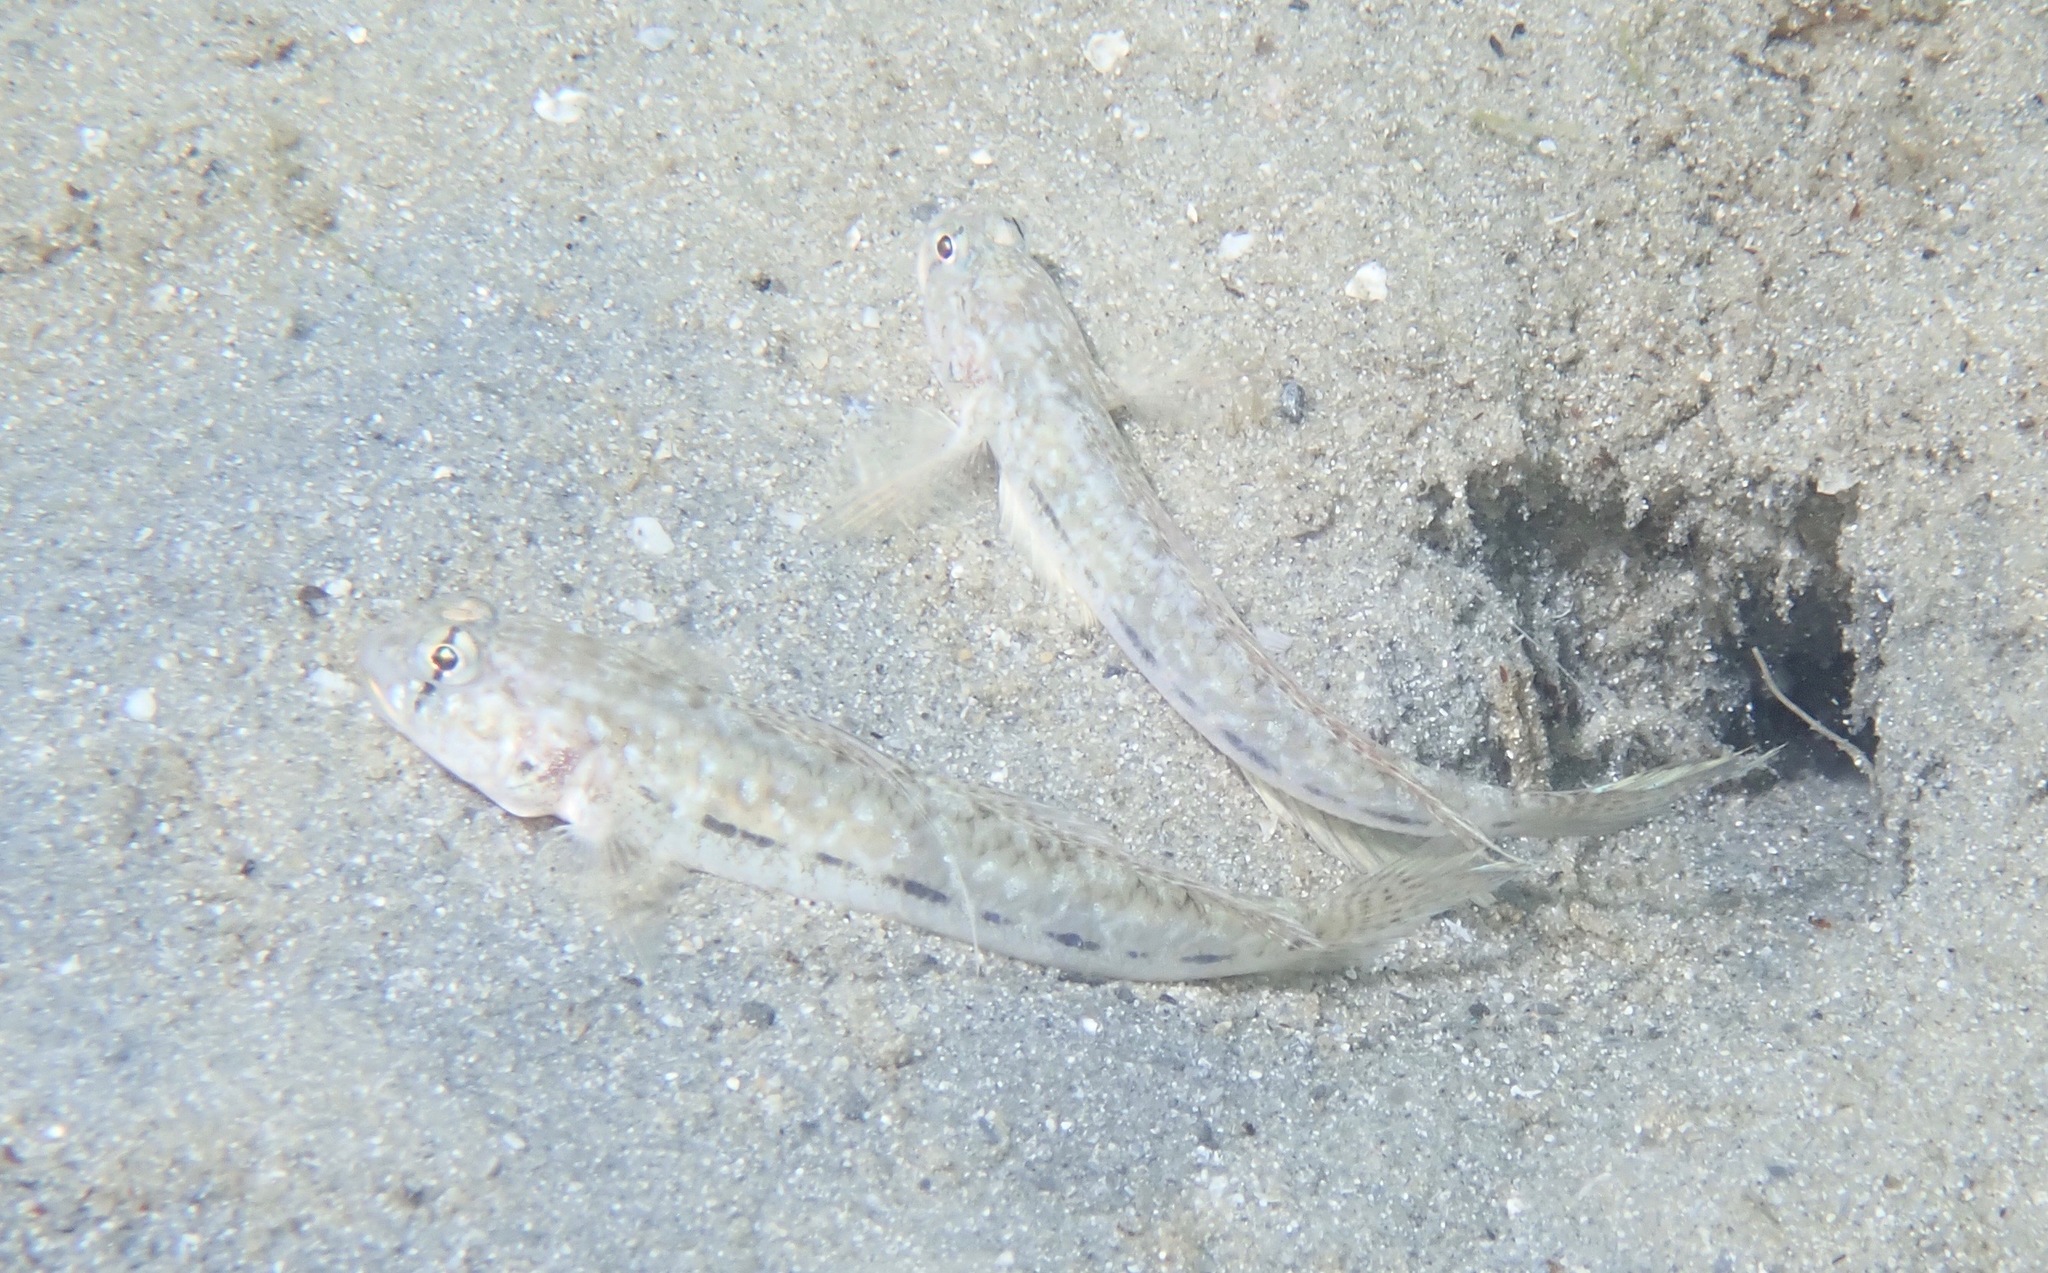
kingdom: Animalia
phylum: Chordata
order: Perciformes
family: Gobiidae
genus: Ctenogobius
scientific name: Ctenogobius saepepallens
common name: Dash goby
